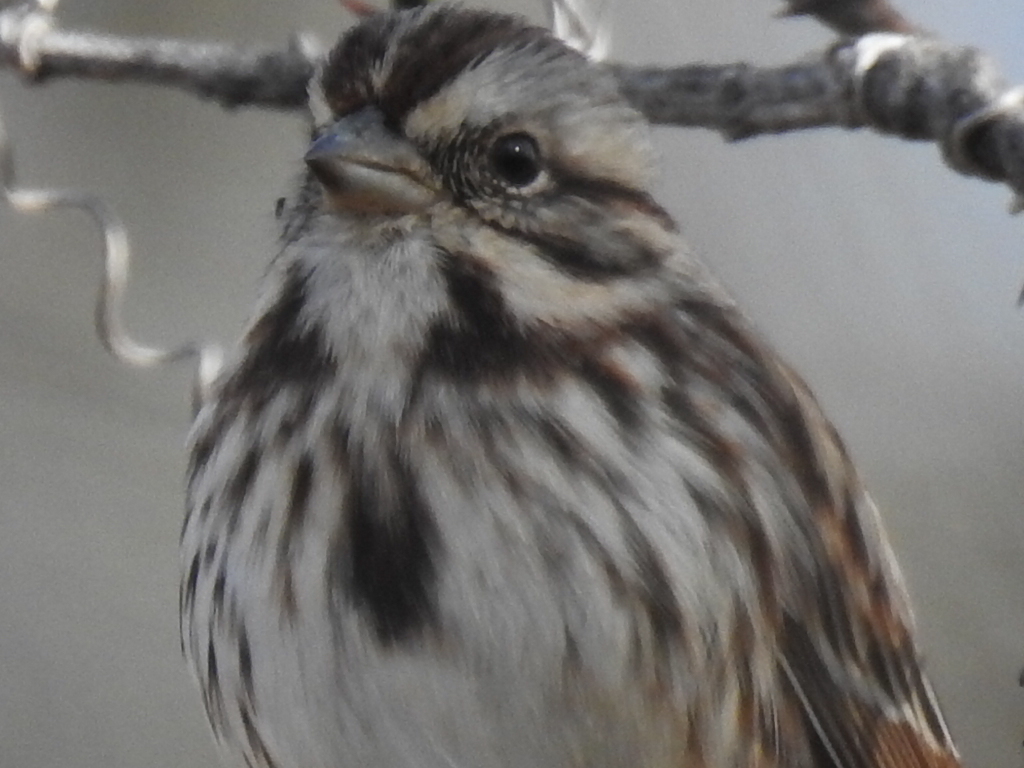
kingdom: Animalia
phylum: Chordata
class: Aves
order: Passeriformes
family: Passerellidae
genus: Melospiza
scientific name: Melospiza melodia
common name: Song sparrow
